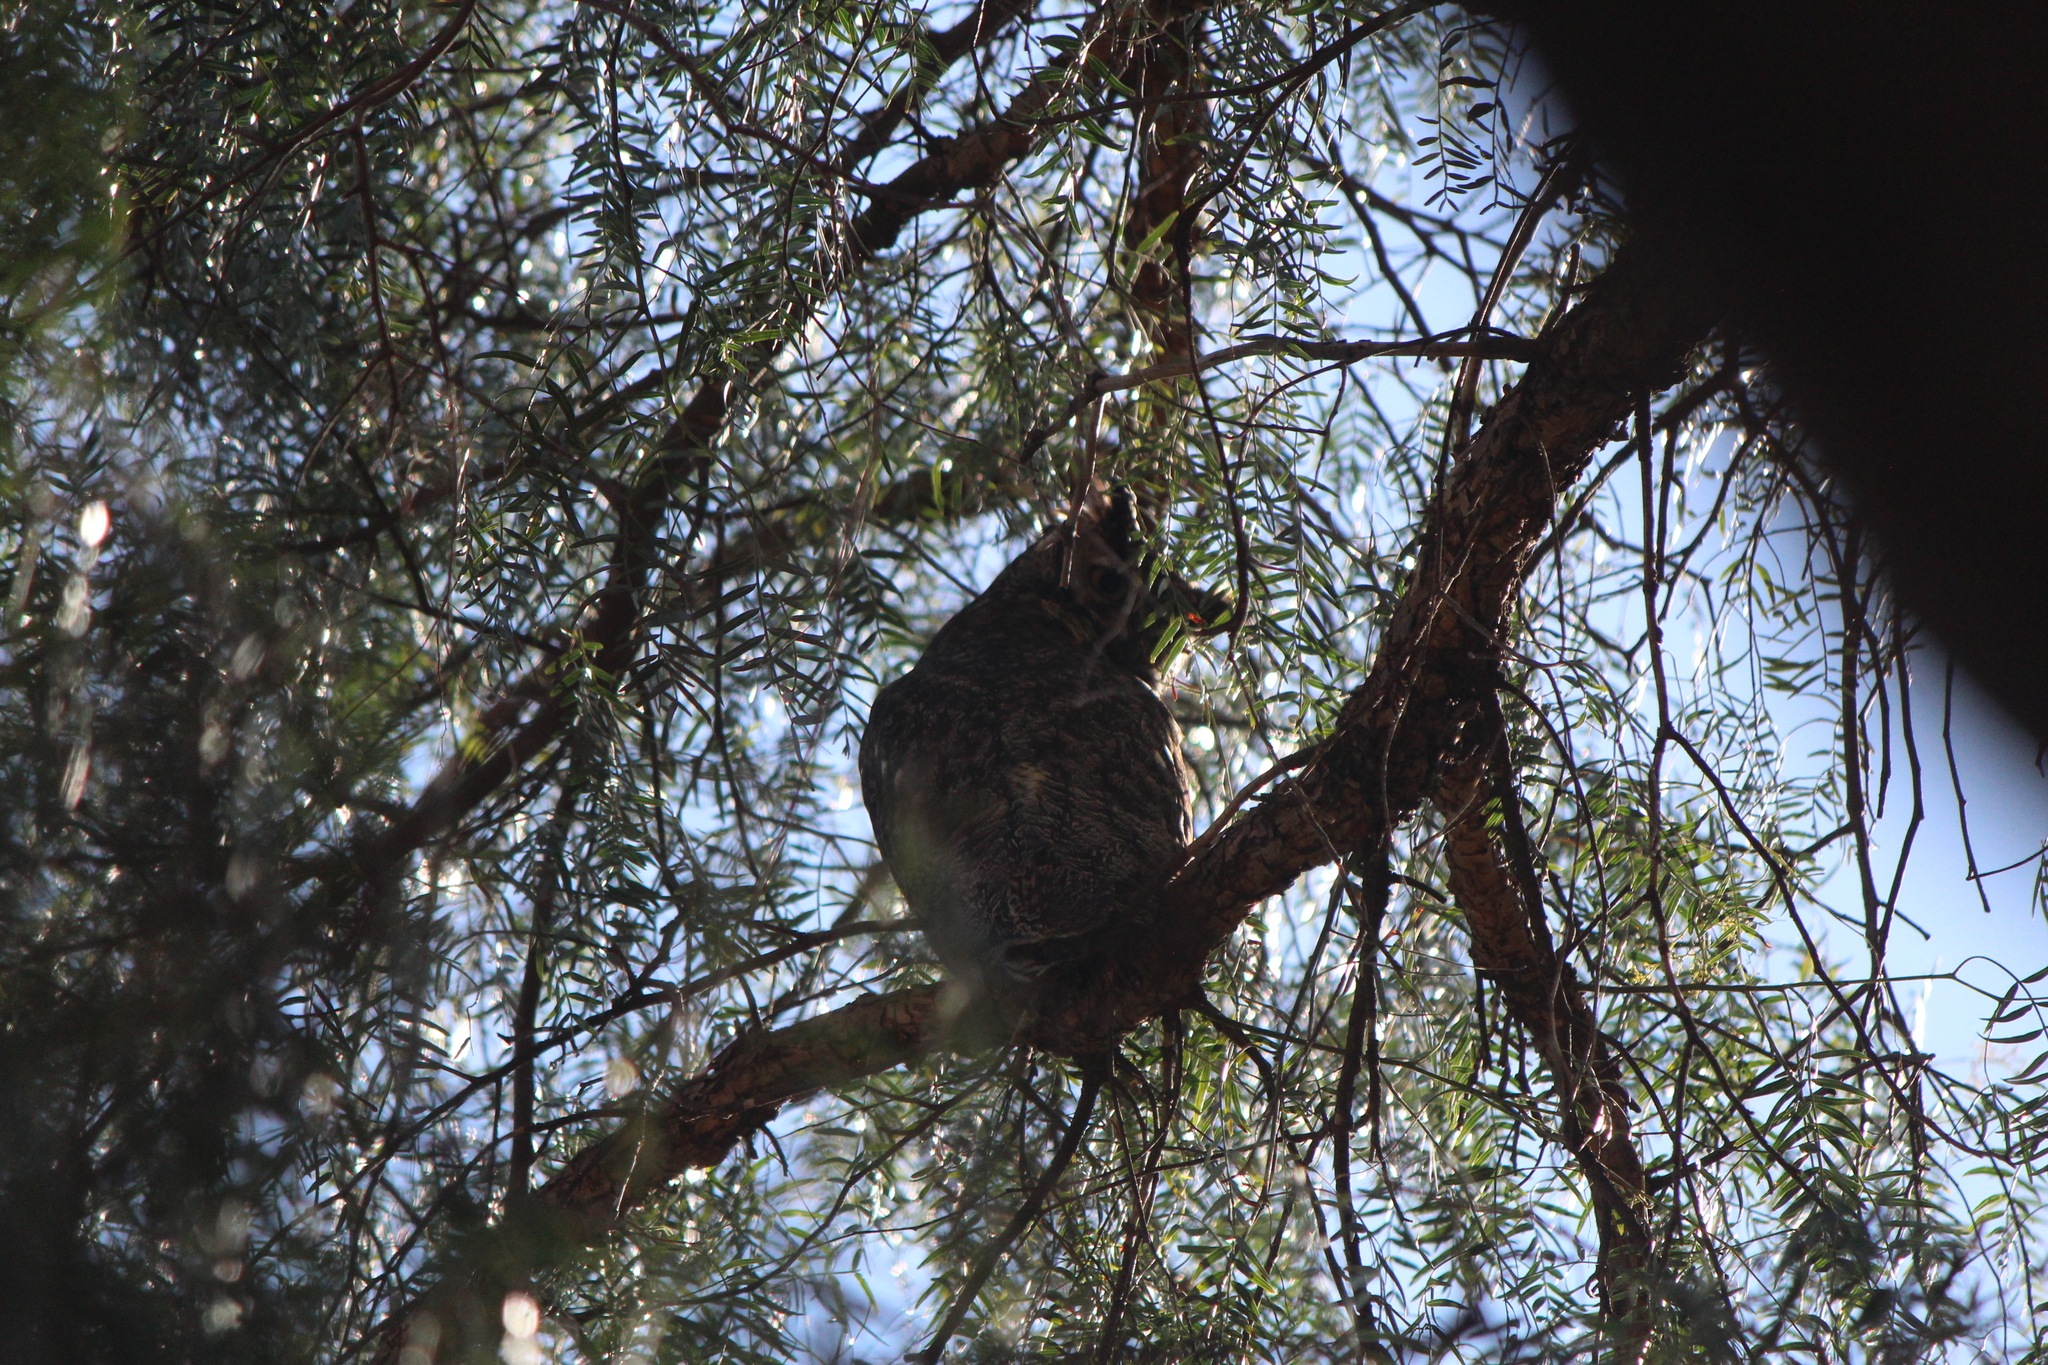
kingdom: Animalia
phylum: Chordata
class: Aves
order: Strigiformes
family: Strigidae
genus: Bubo
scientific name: Bubo virginianus
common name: Great horned owl
